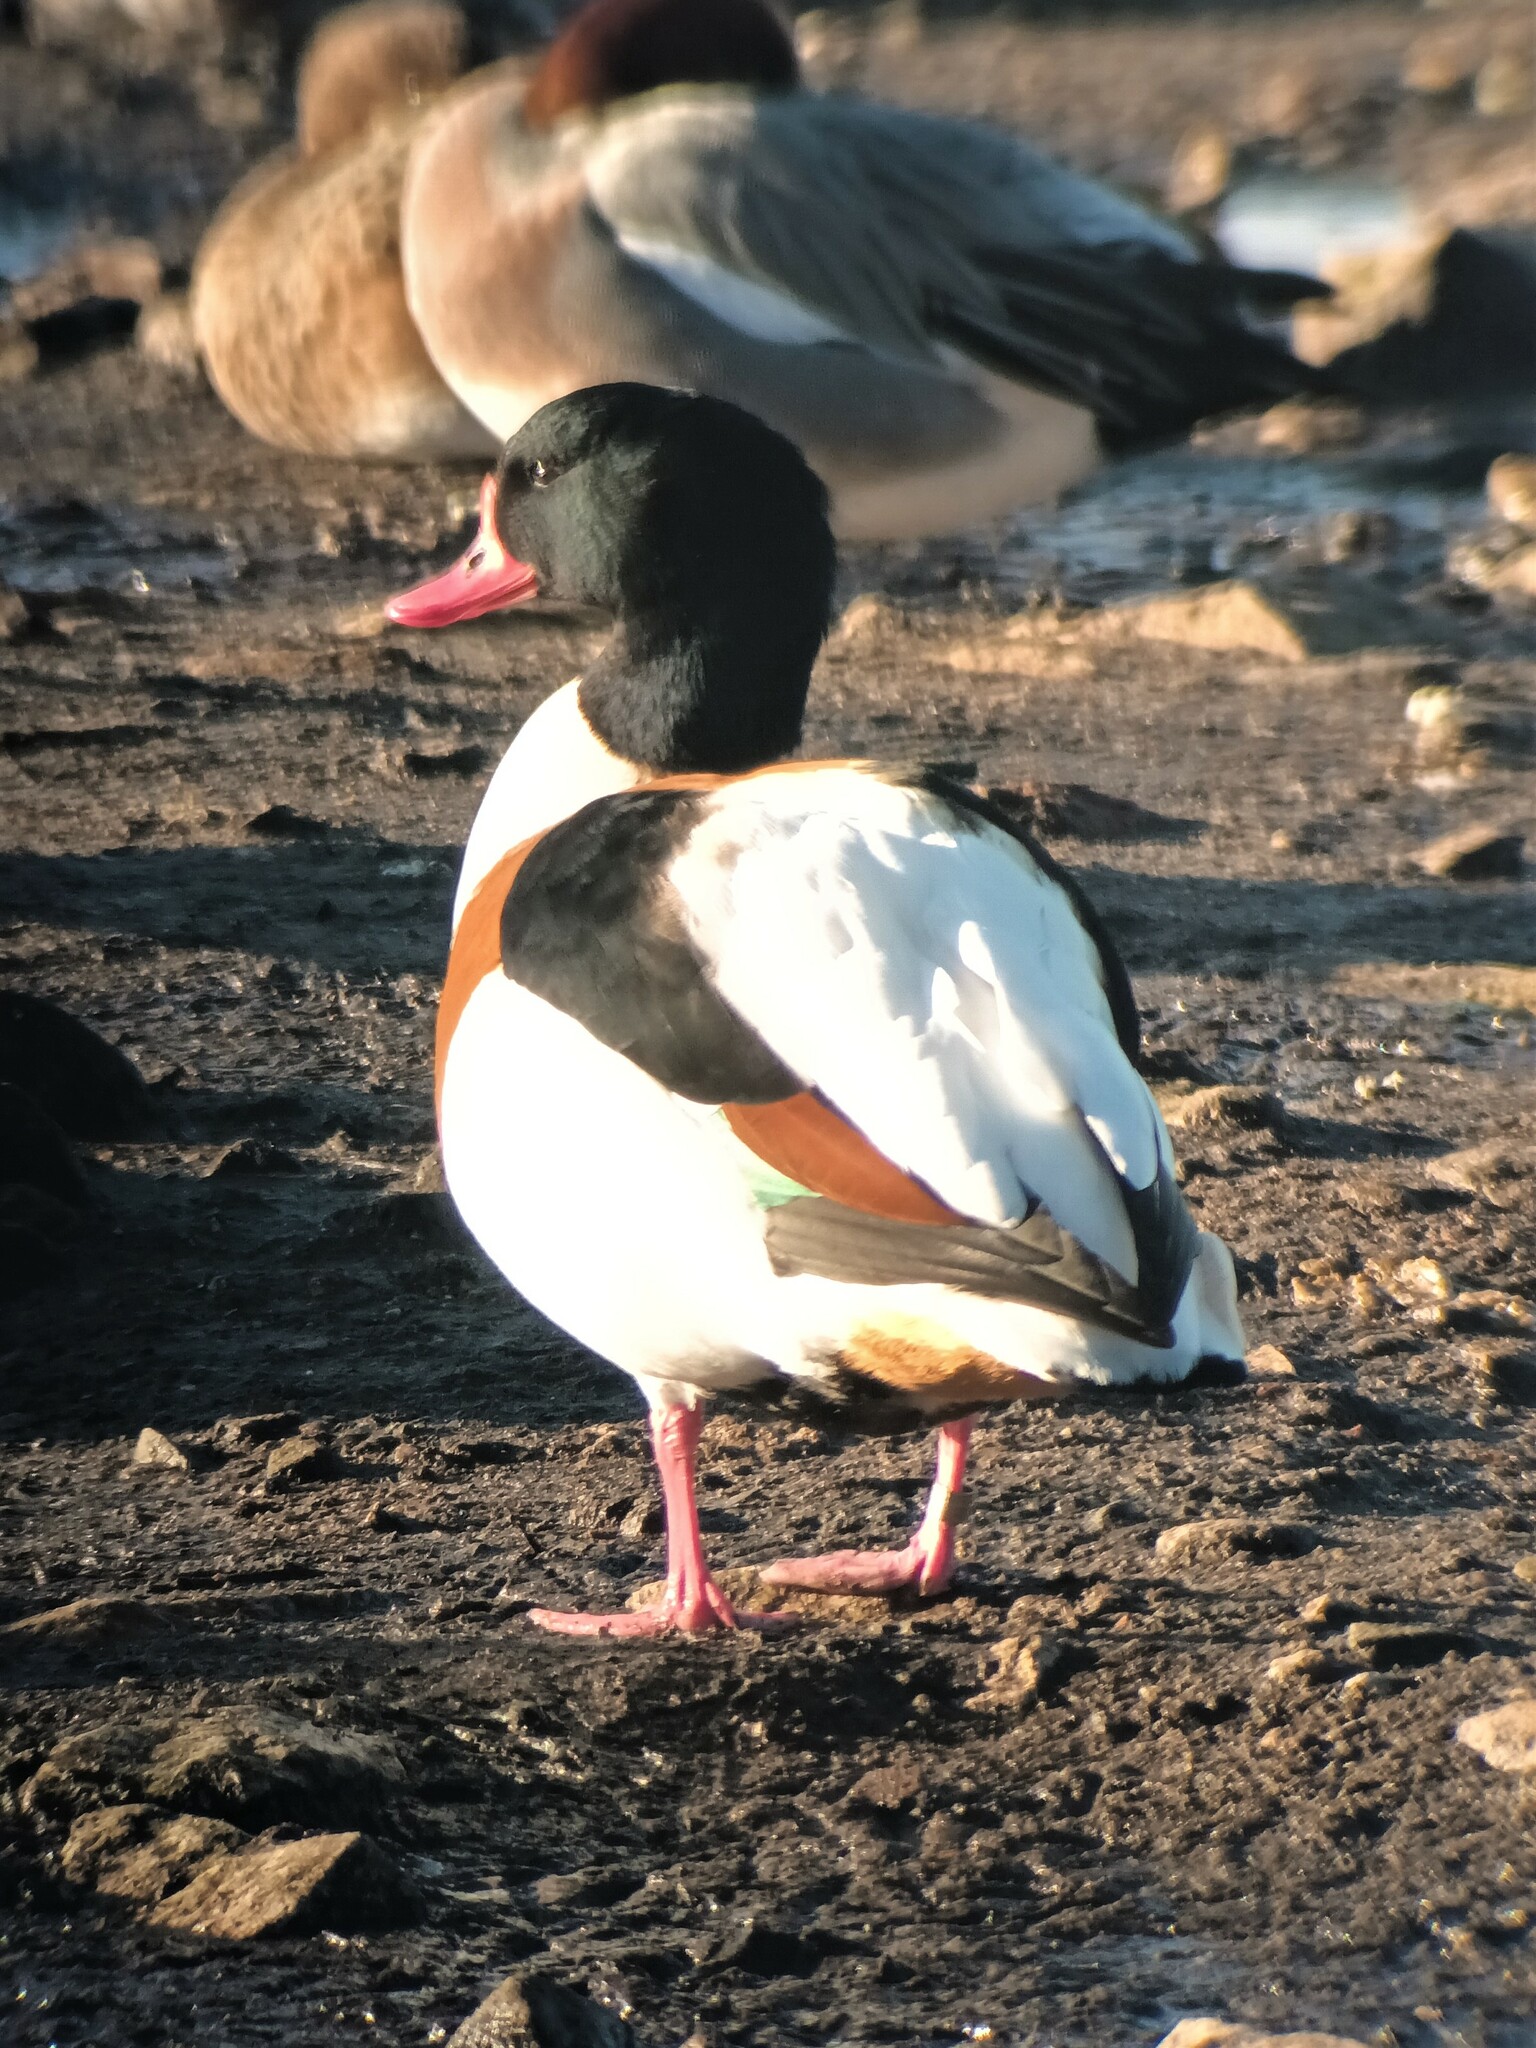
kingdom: Animalia
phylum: Chordata
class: Aves
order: Anseriformes
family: Anatidae
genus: Tadorna
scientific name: Tadorna tadorna
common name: Common shelduck
